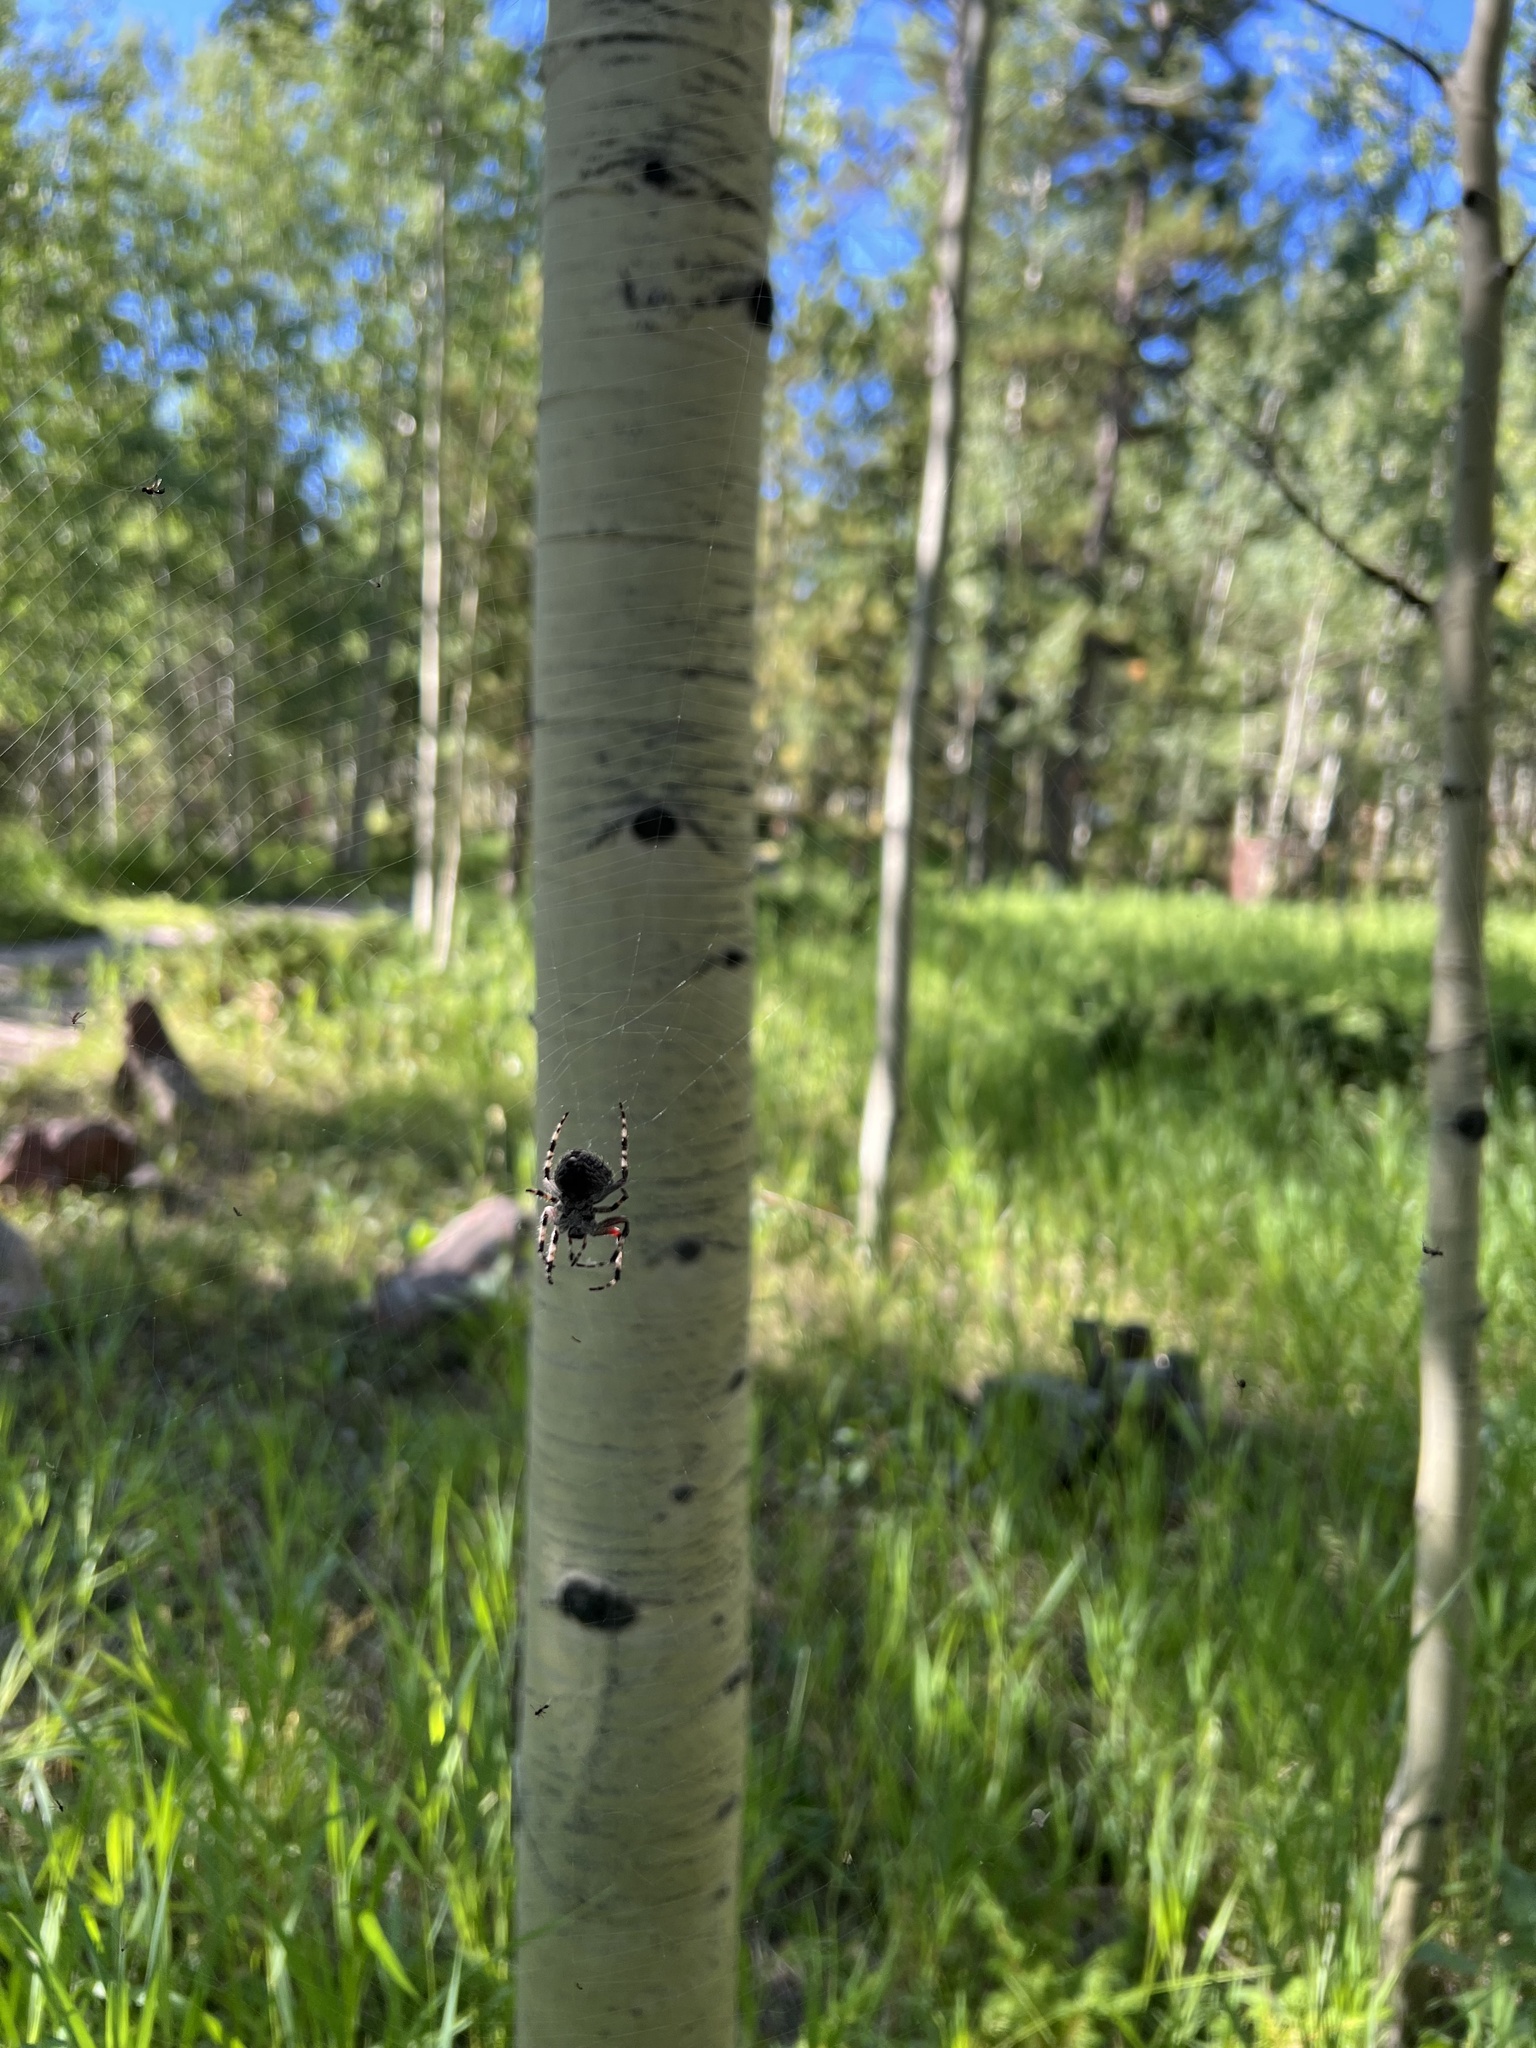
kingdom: Animalia
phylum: Arthropoda
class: Arachnida
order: Araneae
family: Araneidae
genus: Araneus
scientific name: Araneus saevus
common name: Fierce orbweaver
